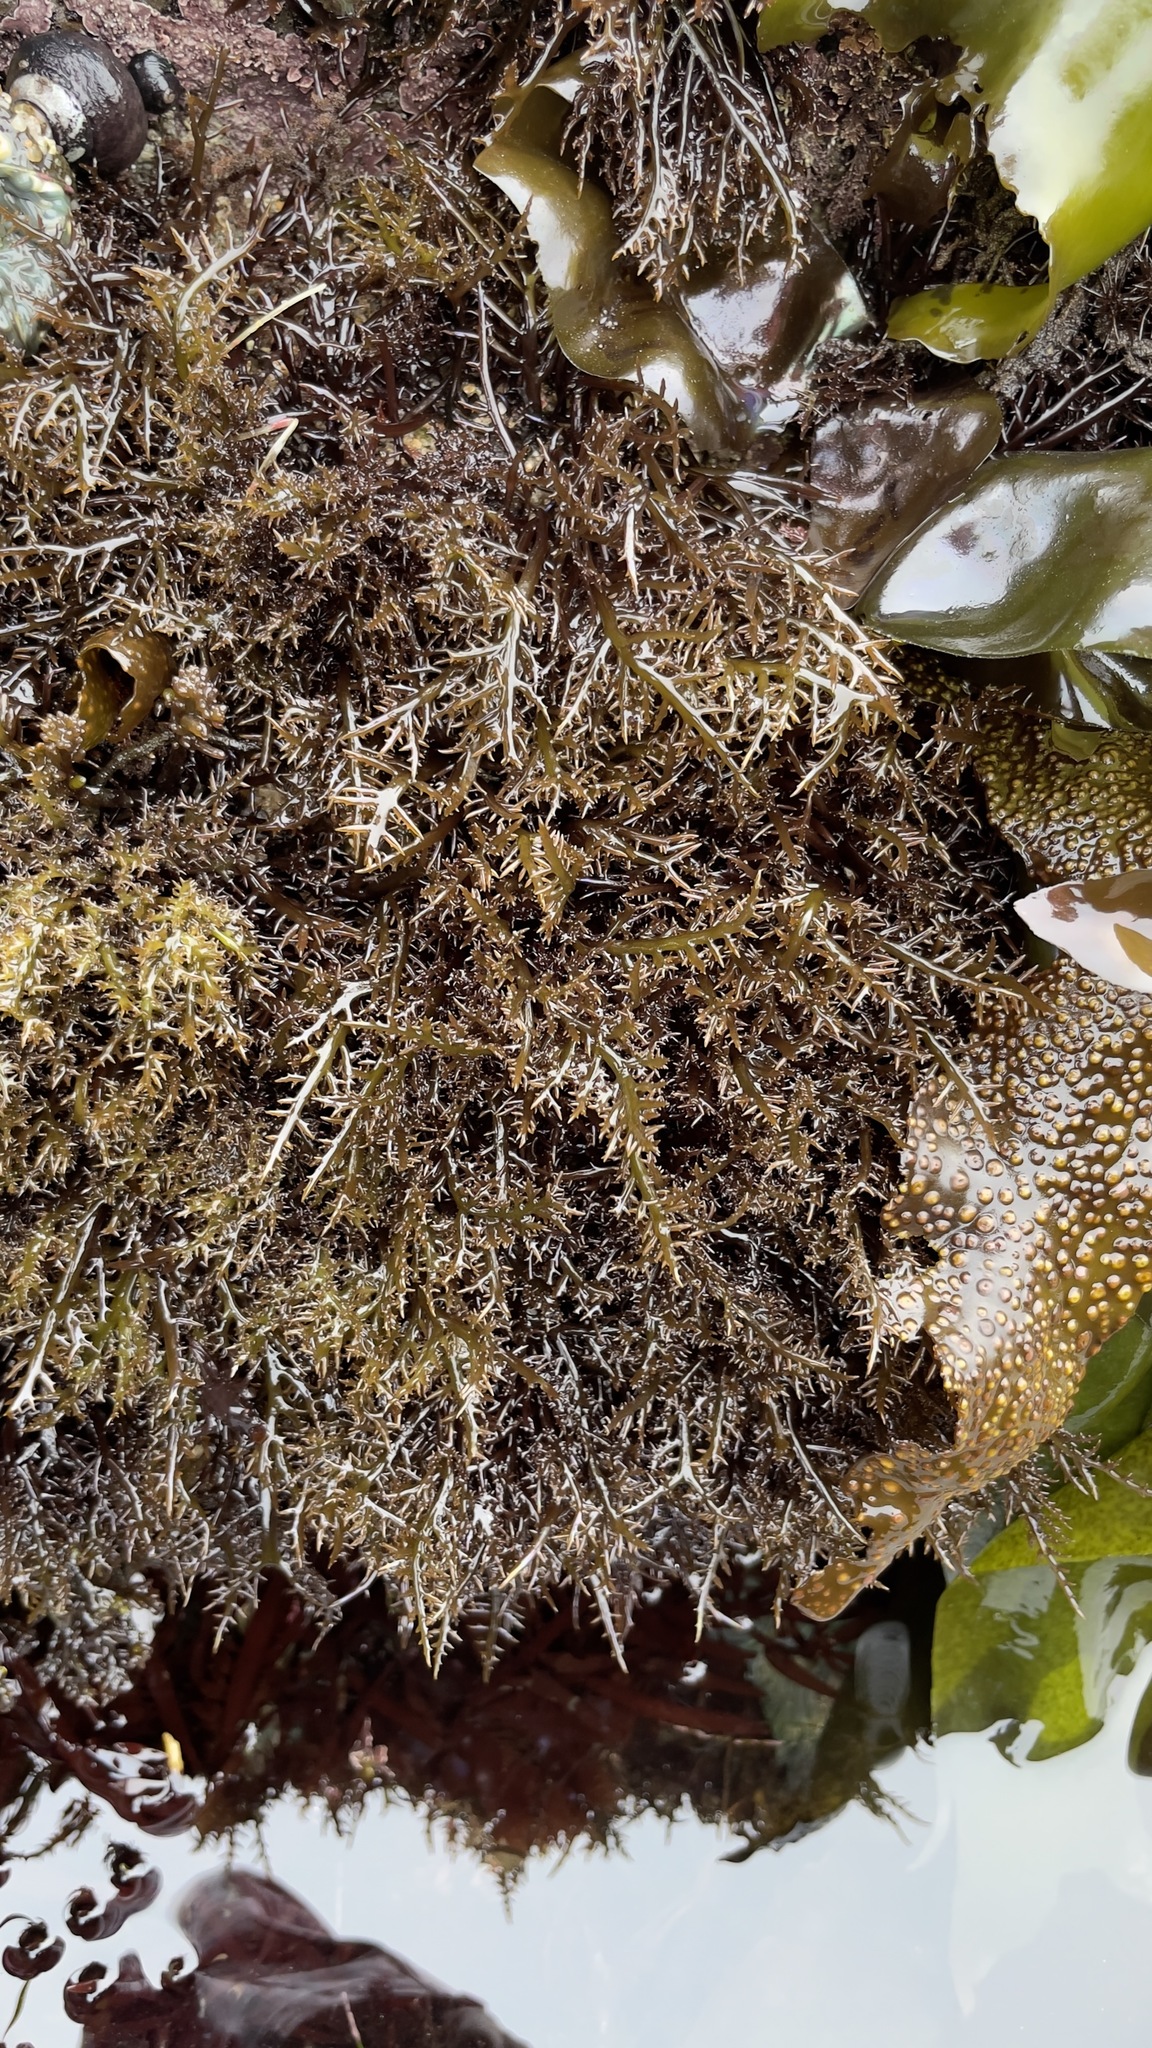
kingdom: Plantae
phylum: Rhodophyta
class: Florideophyceae
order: Gigartinales
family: Gigartinaceae
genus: Chondracanthus
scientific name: Chondracanthus canaliculatus
